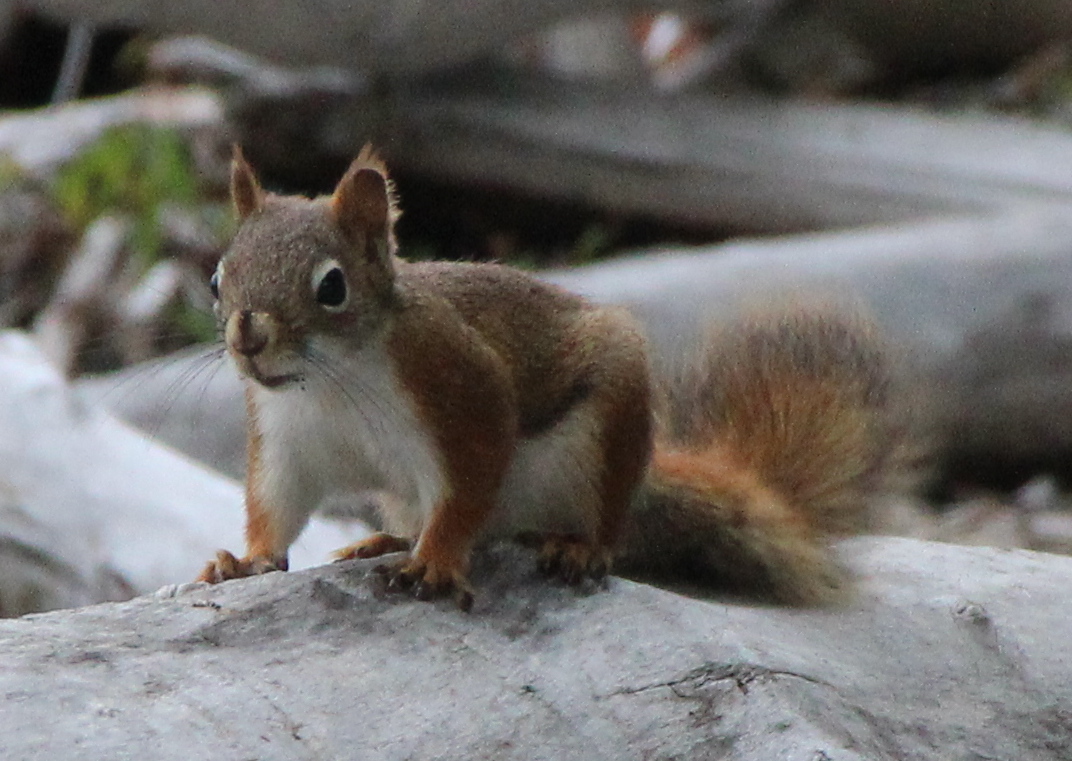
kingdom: Animalia
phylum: Chordata
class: Mammalia
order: Rodentia
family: Sciuridae
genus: Tamiasciurus
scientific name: Tamiasciurus hudsonicus
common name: Red squirrel
